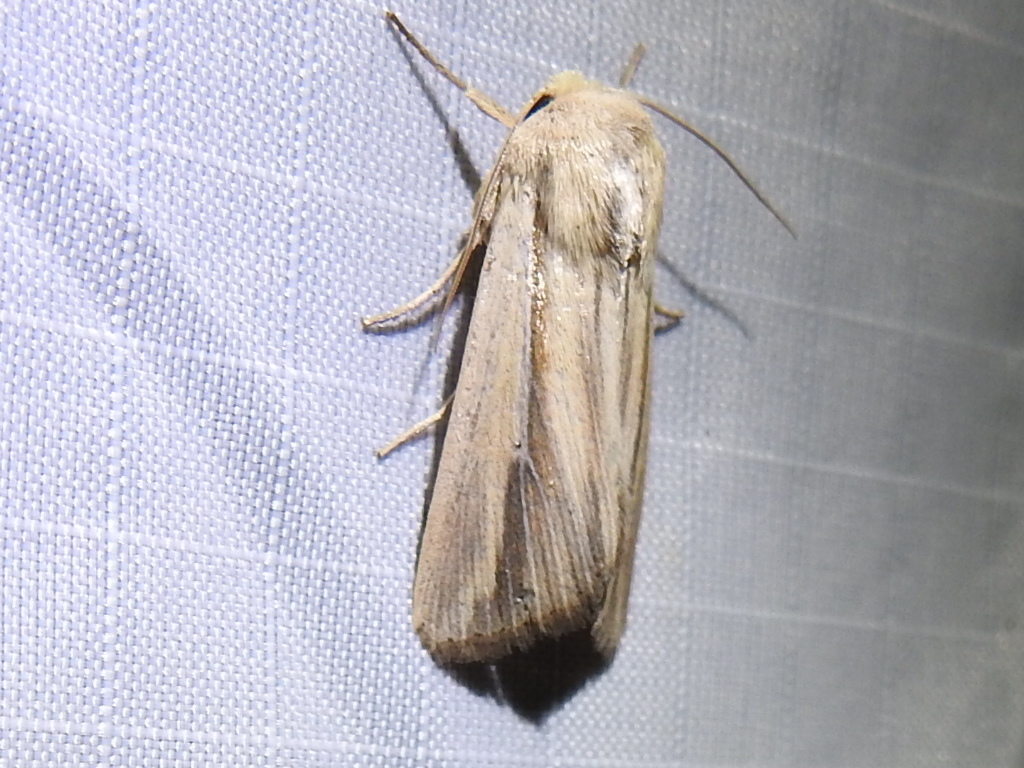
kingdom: Animalia
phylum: Arthropoda
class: Insecta
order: Lepidoptera
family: Noctuidae
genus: Dargida
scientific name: Dargida tetera
